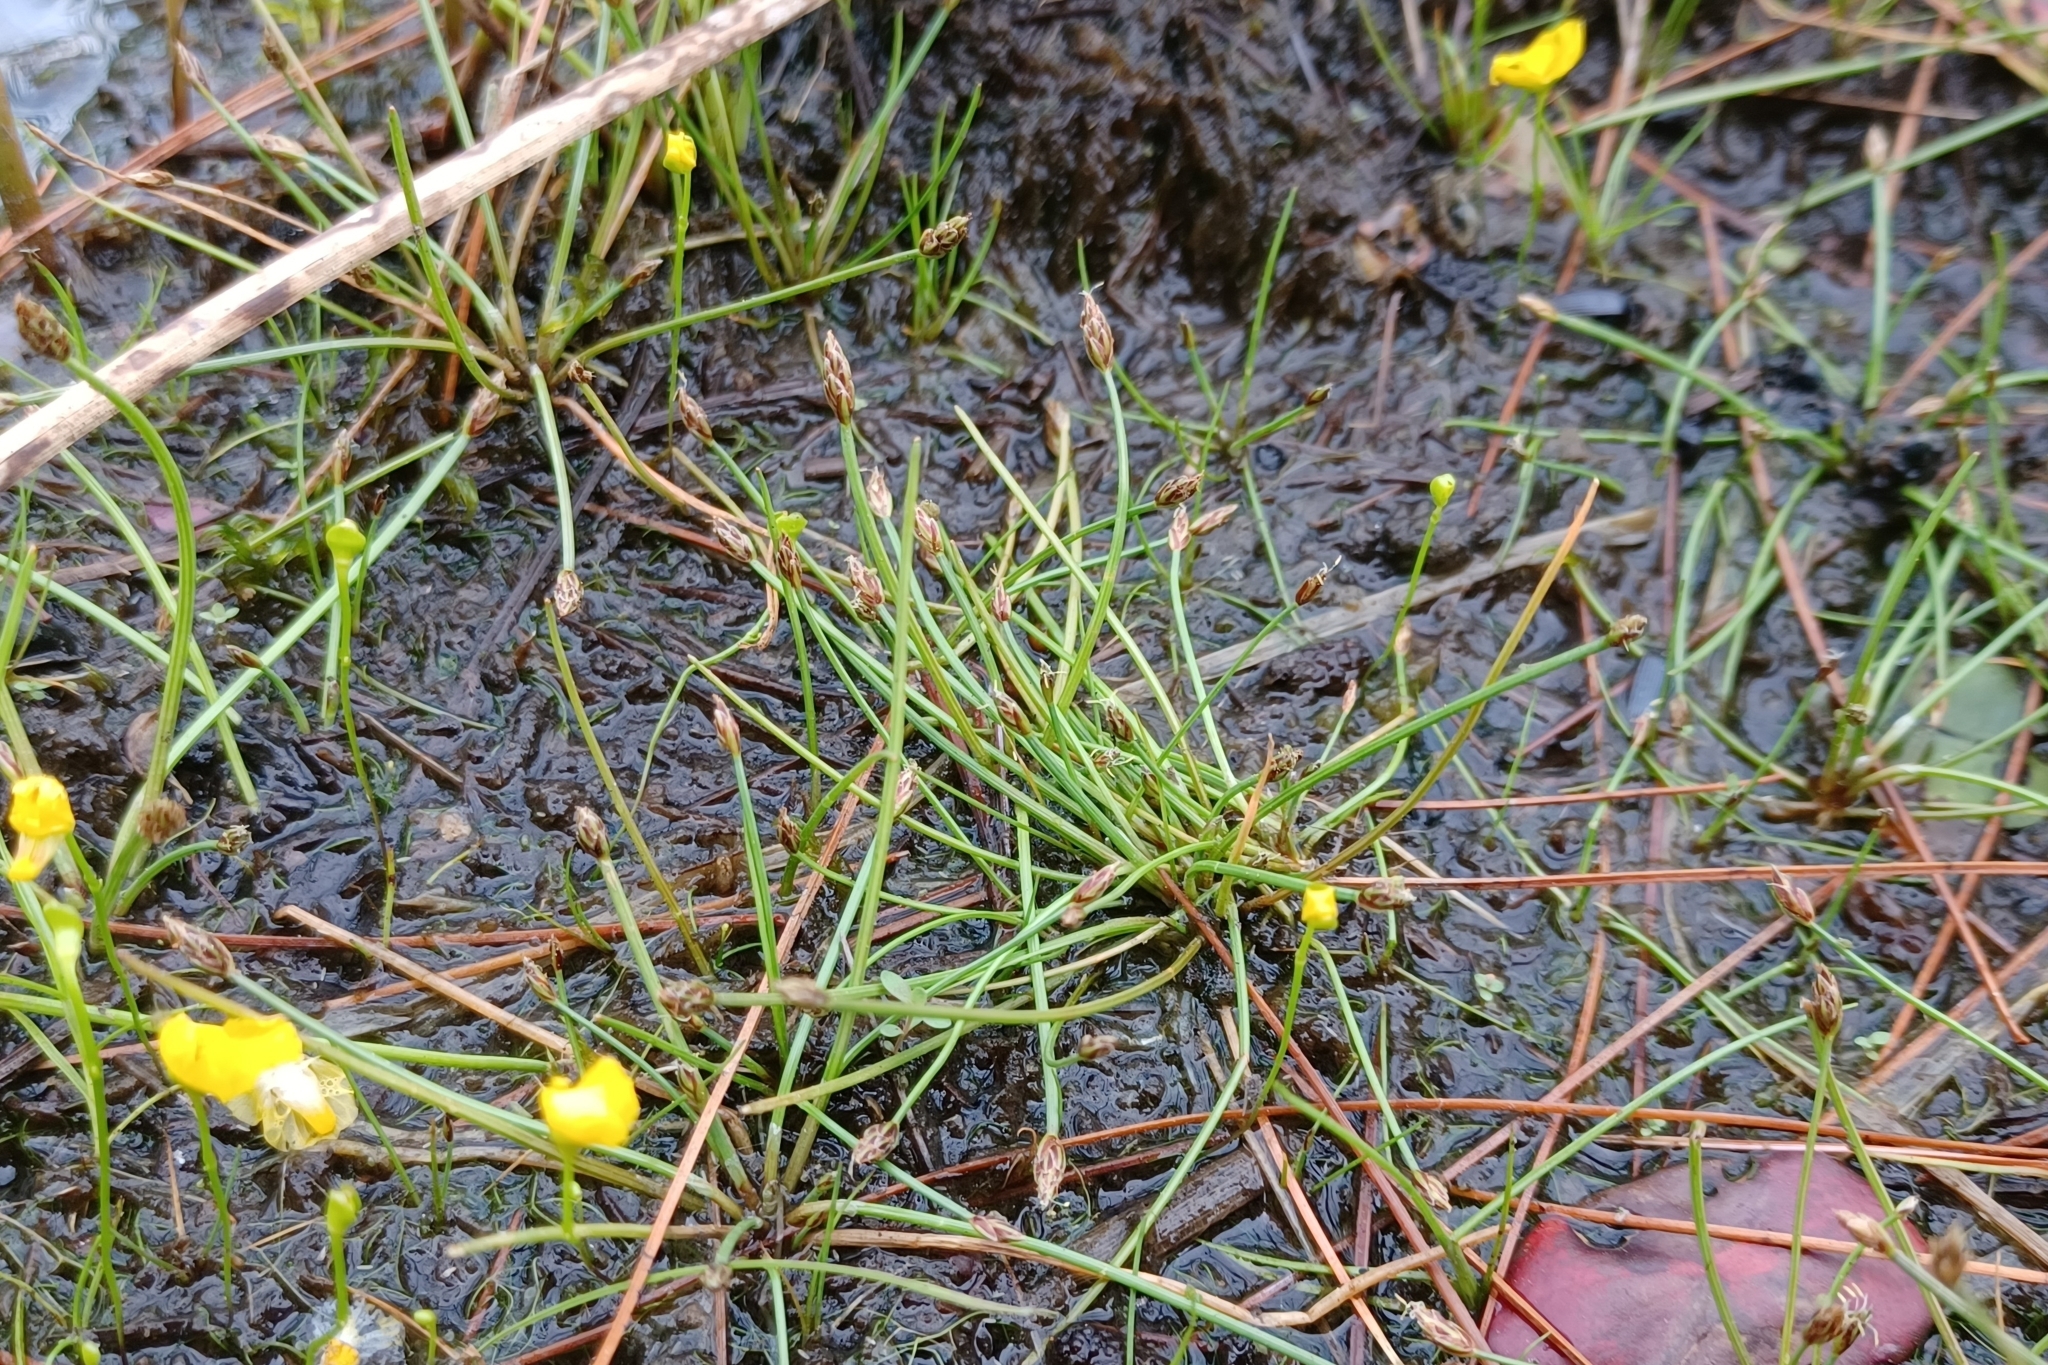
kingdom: Plantae
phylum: Tracheophyta
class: Liliopsida
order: Poales
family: Cyperaceae
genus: Eleocharis
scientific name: Eleocharis flavescens
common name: Yellow spikerush
